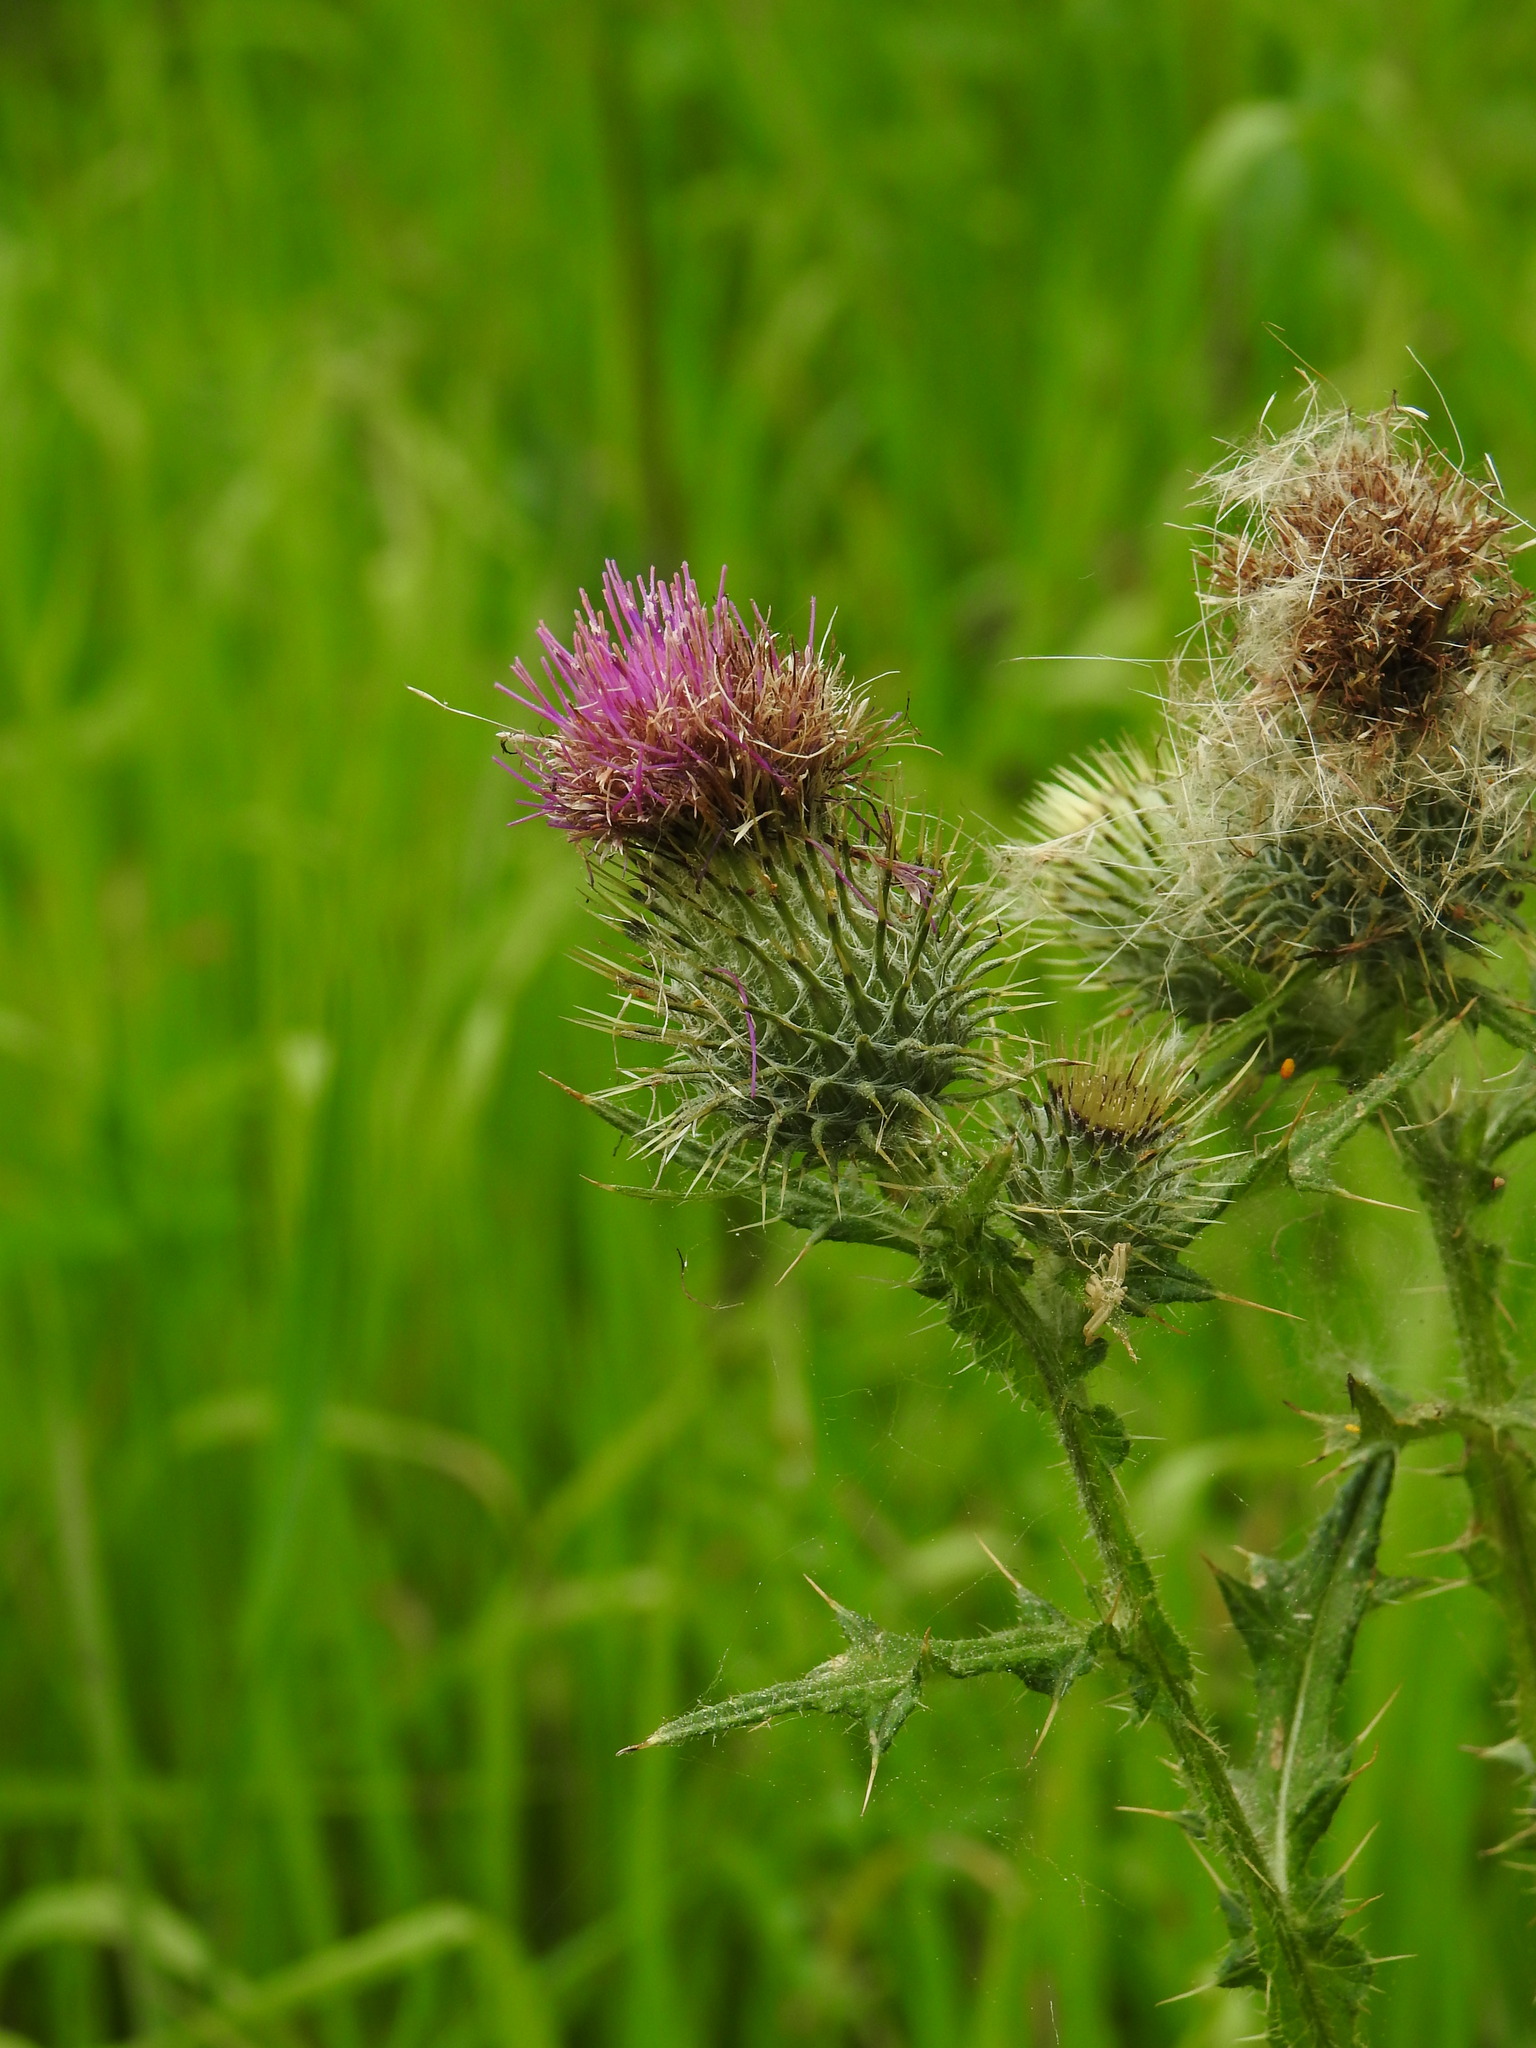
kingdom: Plantae
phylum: Tracheophyta
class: Magnoliopsida
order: Asterales
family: Asteraceae
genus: Cirsium
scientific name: Cirsium vulgare
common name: Bull thistle
